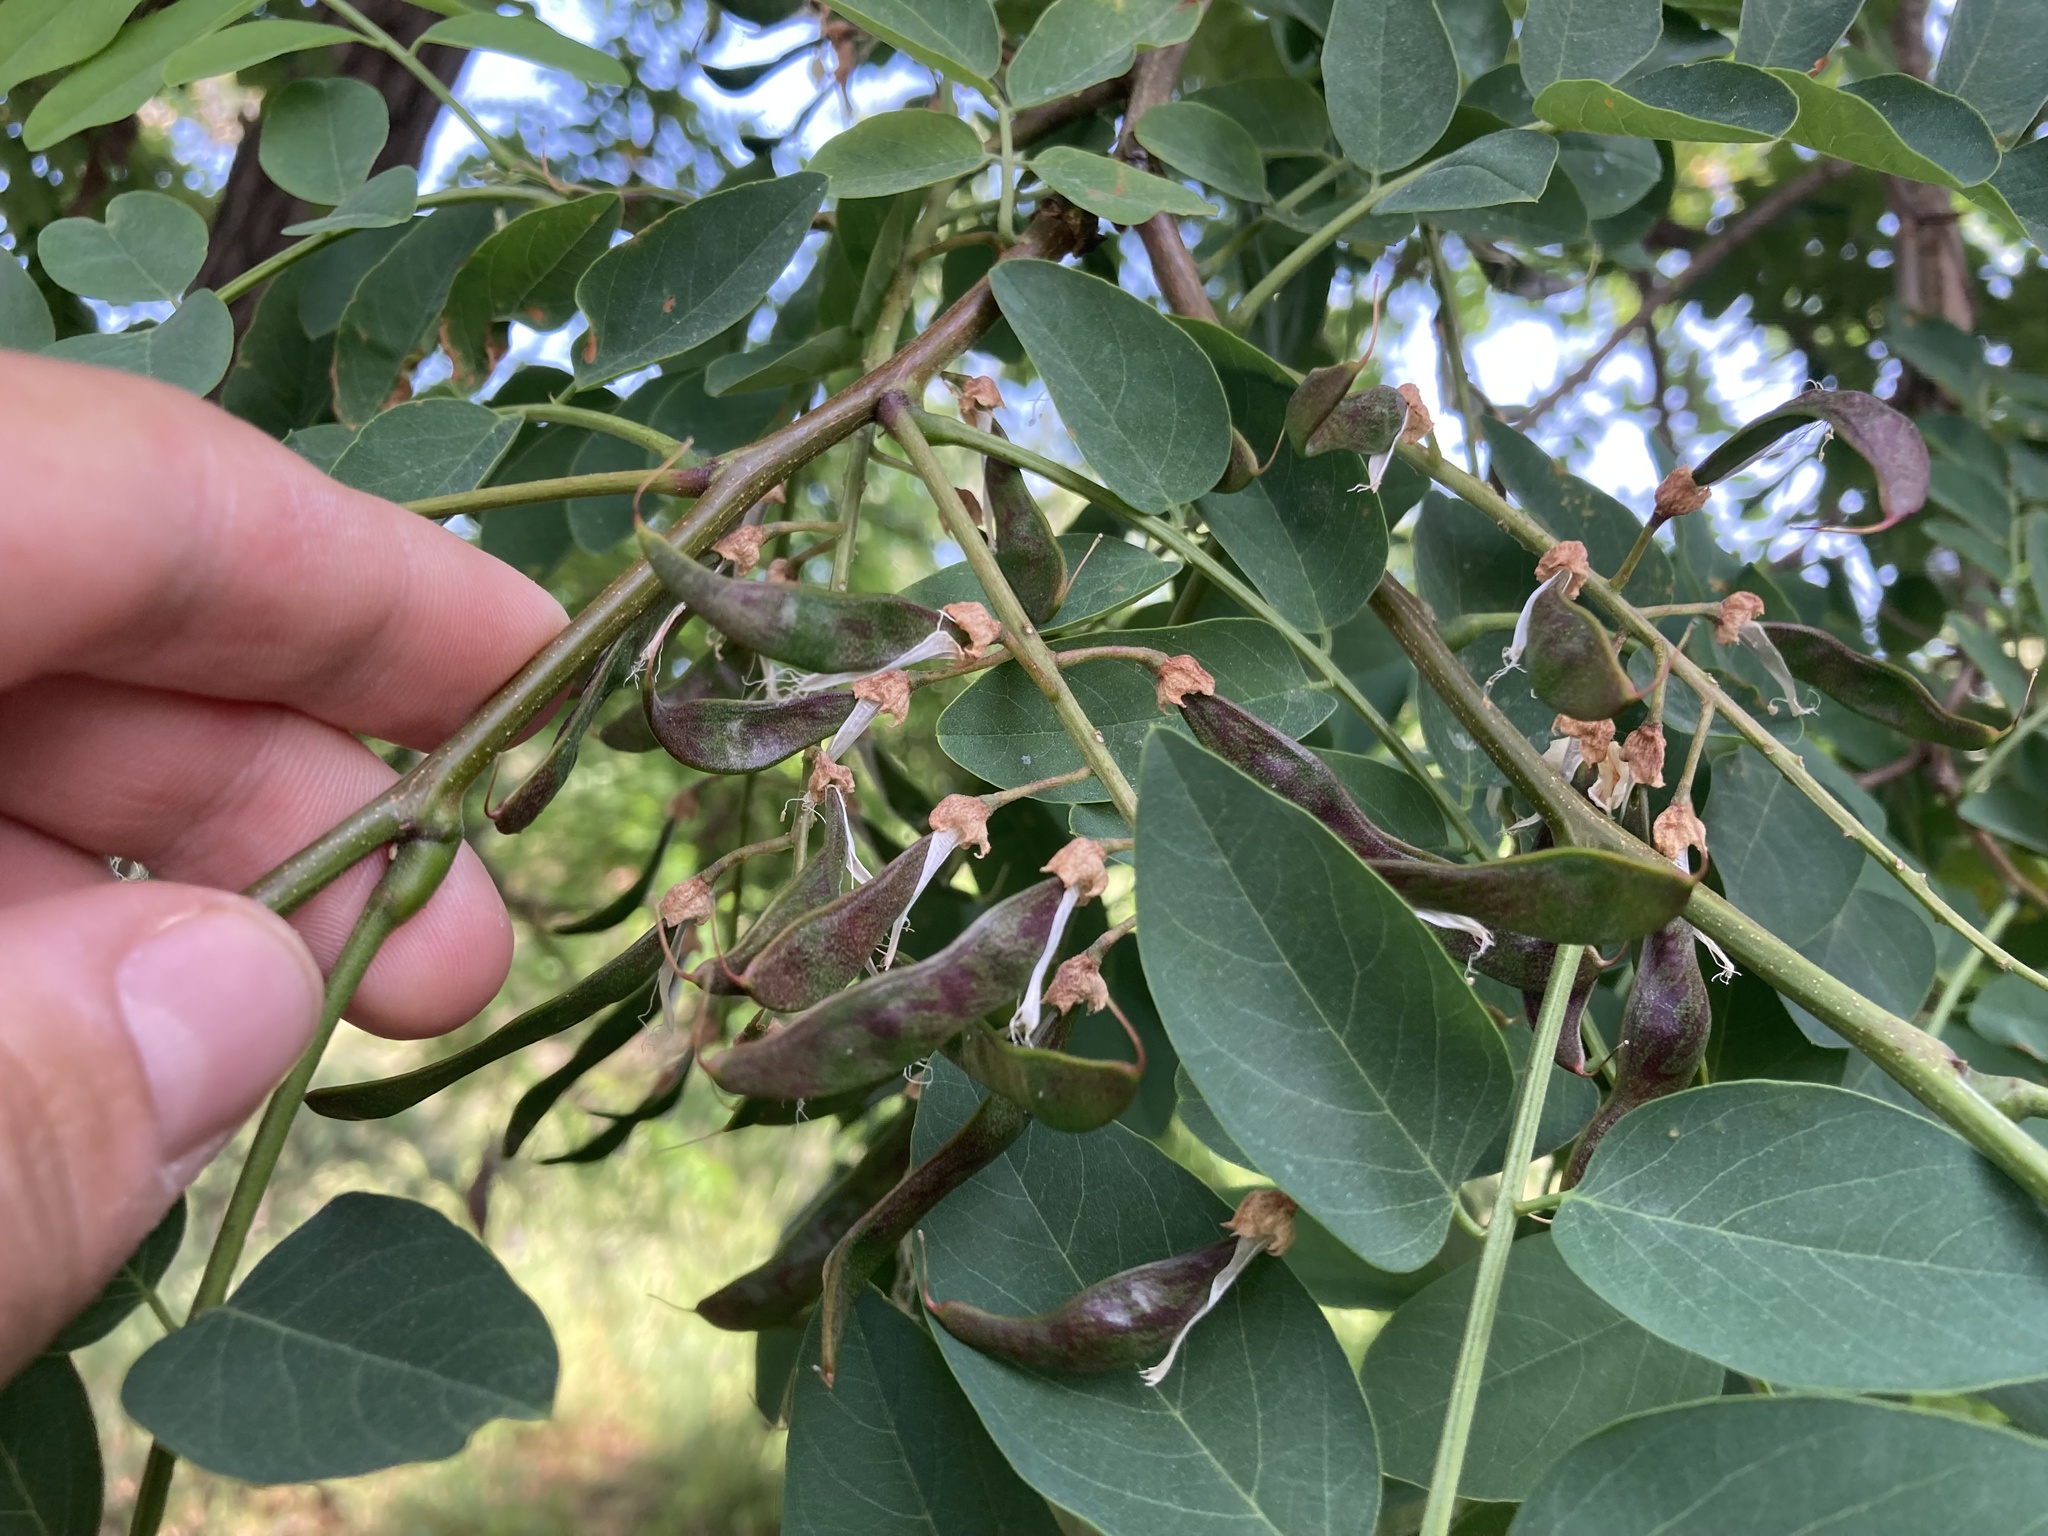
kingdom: Plantae
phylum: Tracheophyta
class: Magnoliopsida
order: Fabales
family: Fabaceae
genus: Robinia
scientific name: Robinia pseudoacacia
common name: Black locust
